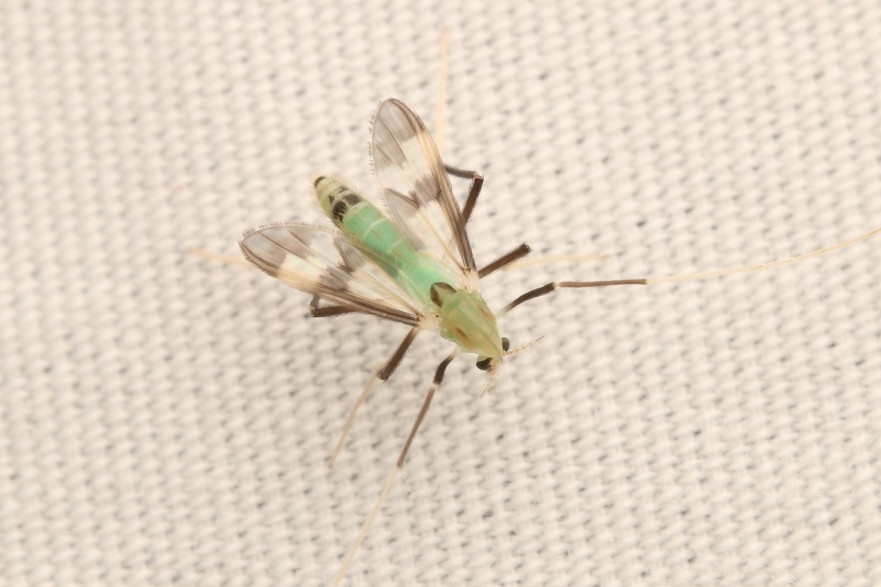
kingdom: Animalia
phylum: Arthropoda
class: Insecta
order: Diptera
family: Chironomidae
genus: Stenochironomus
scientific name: Stenochironomus hilaris
